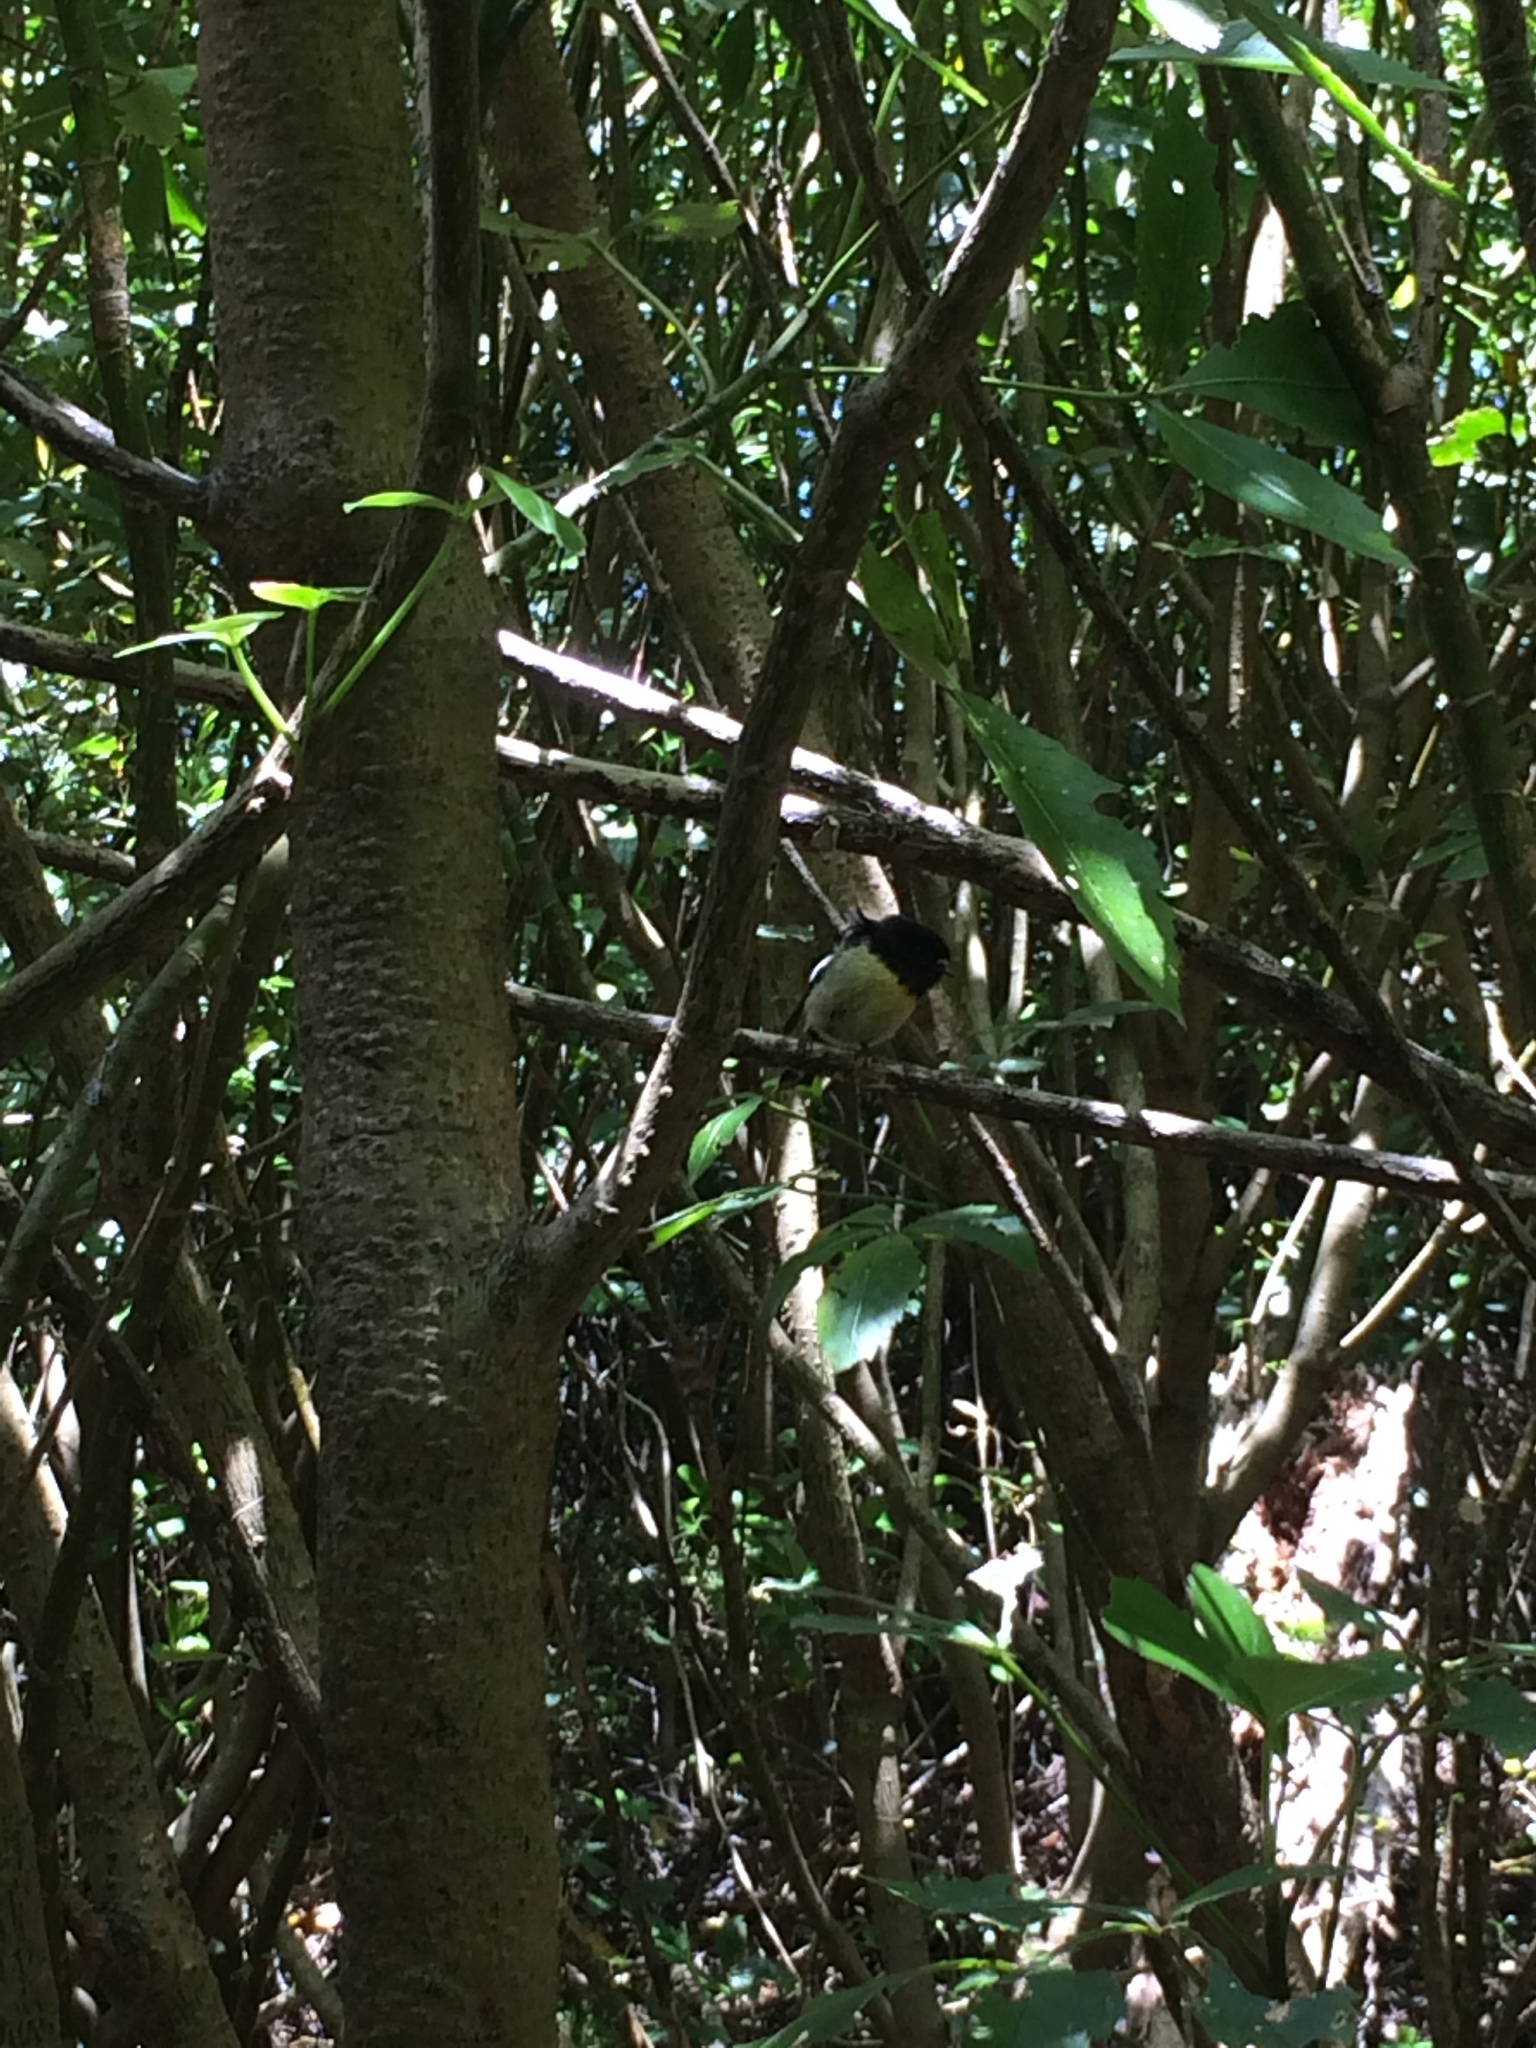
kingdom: Animalia
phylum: Chordata
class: Aves
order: Passeriformes
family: Petroicidae
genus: Petroica
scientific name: Petroica macrocephala
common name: Tomtit
